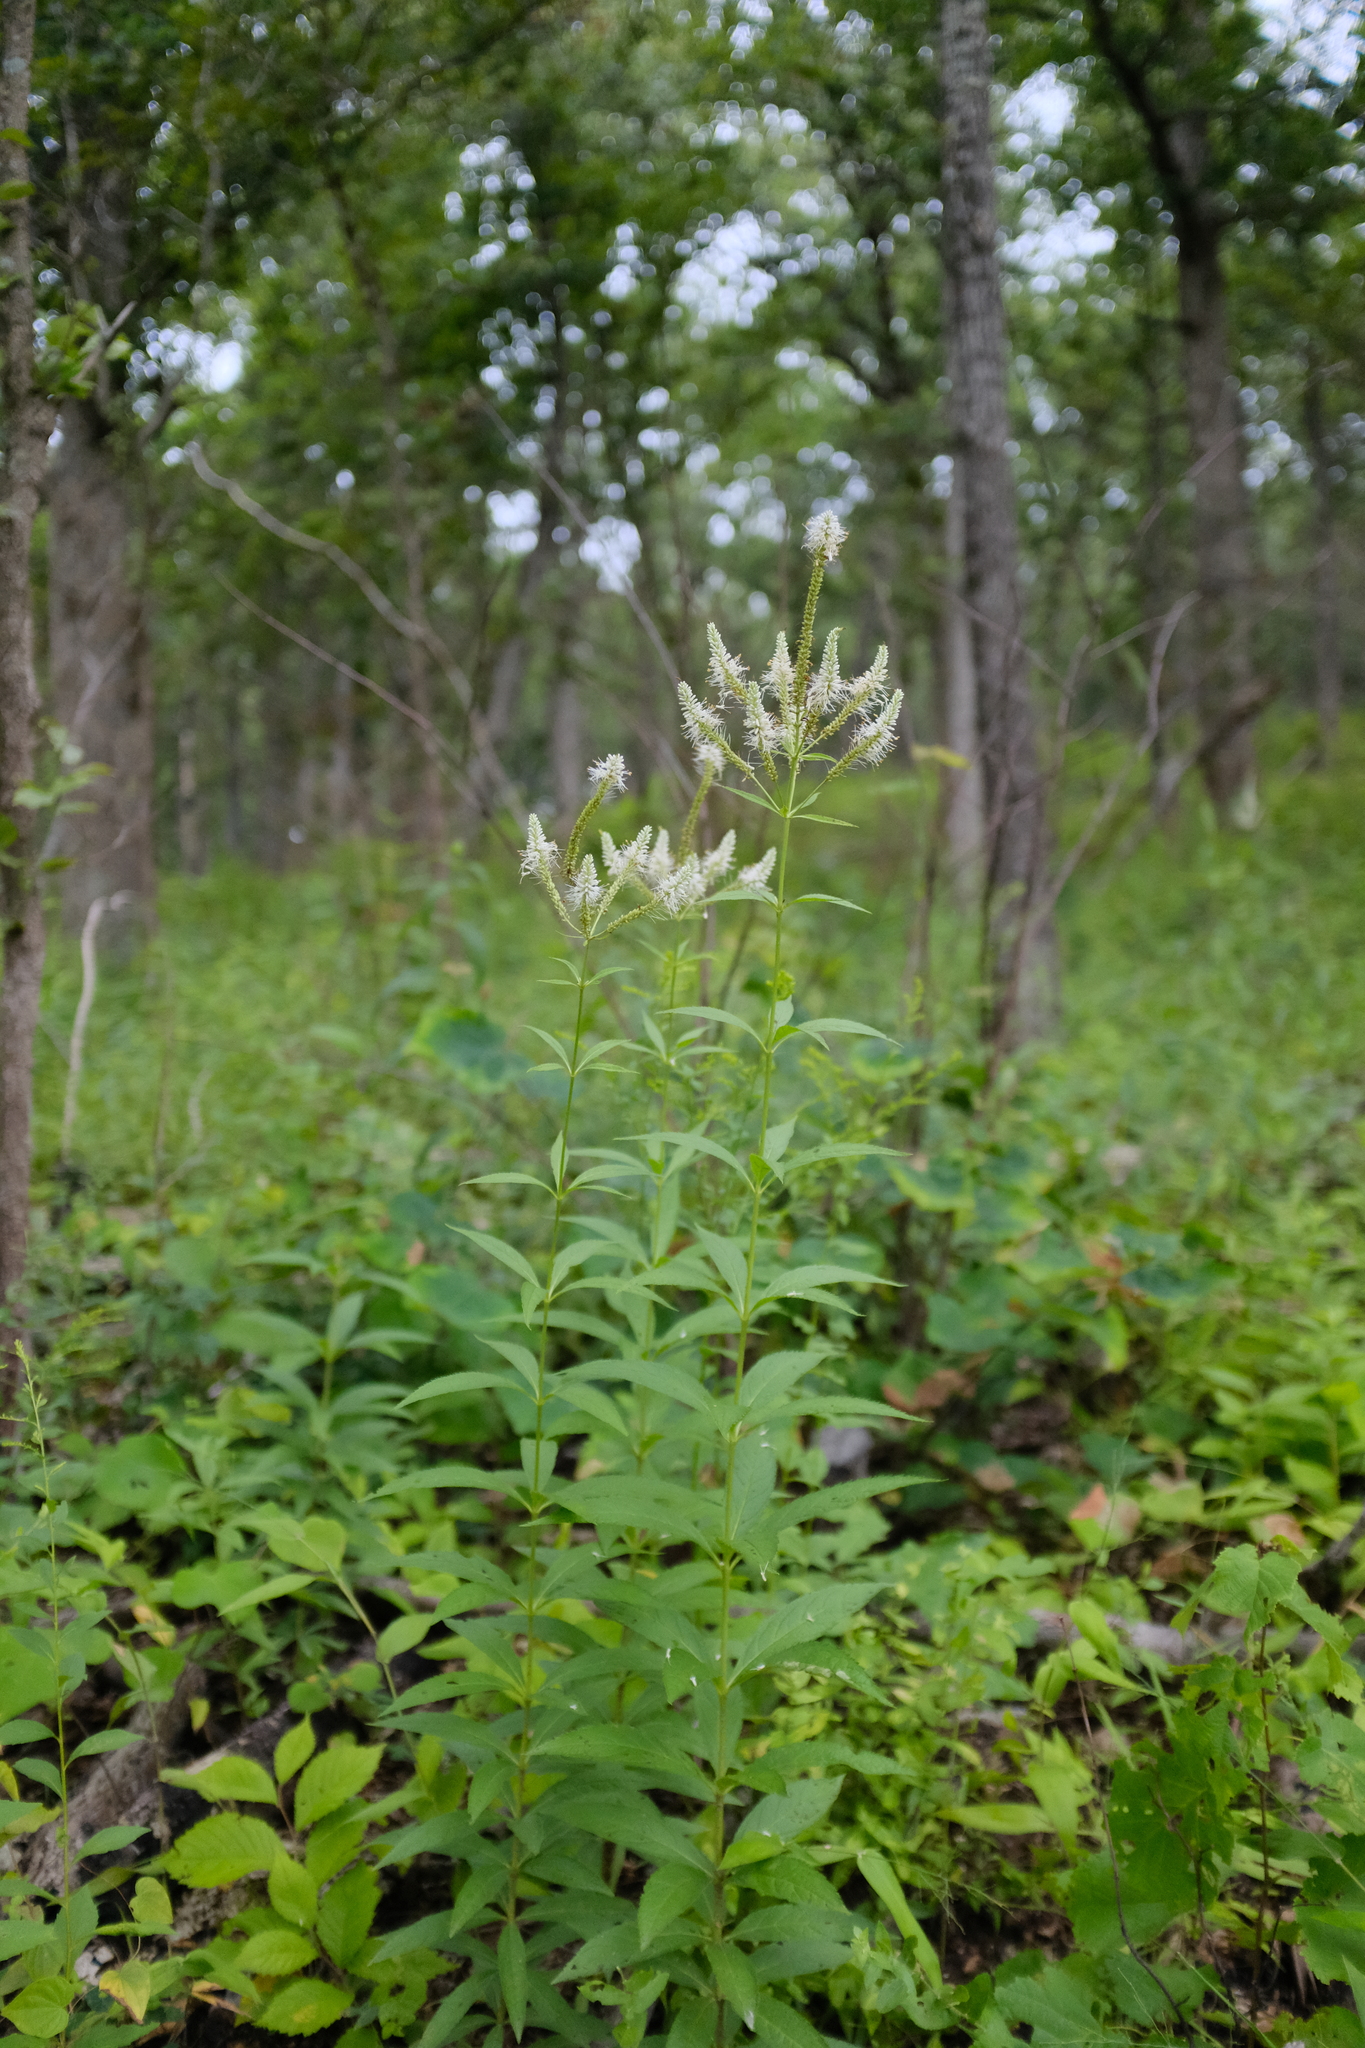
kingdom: Plantae
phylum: Tracheophyta
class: Magnoliopsida
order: Lamiales
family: Plantaginaceae
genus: Veronicastrum
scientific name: Veronicastrum virginicum
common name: Blackroot
